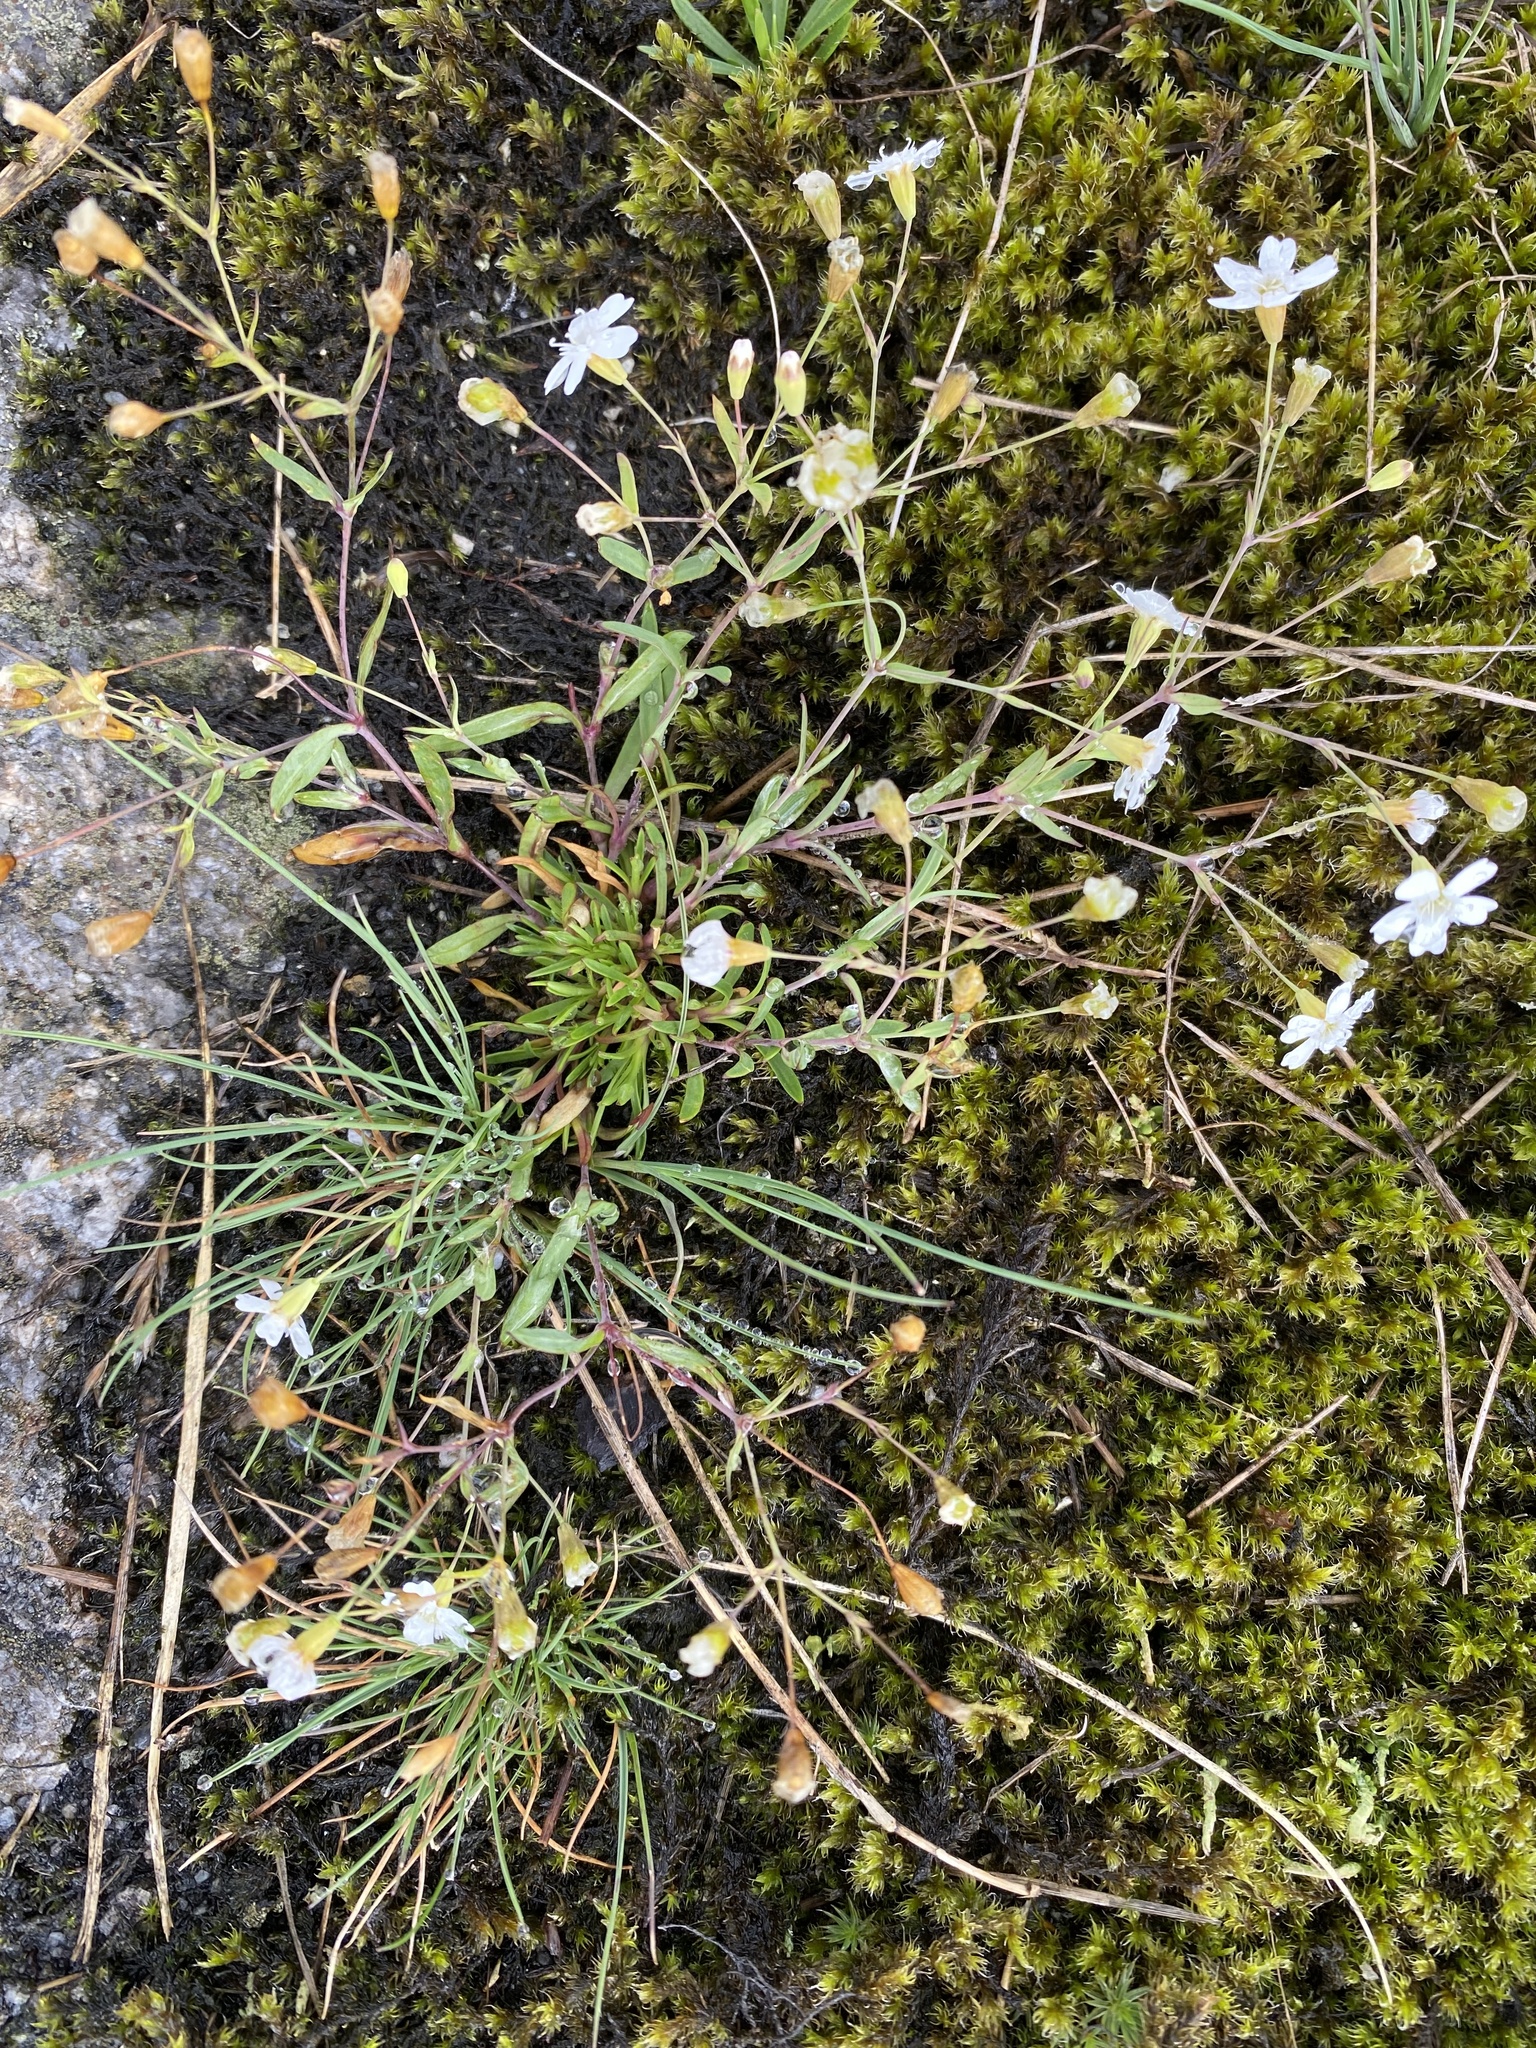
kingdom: Plantae
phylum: Tracheophyta
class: Magnoliopsida
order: Caryophyllales
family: Caryophyllaceae
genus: Atocion
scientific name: Atocion rupestre
